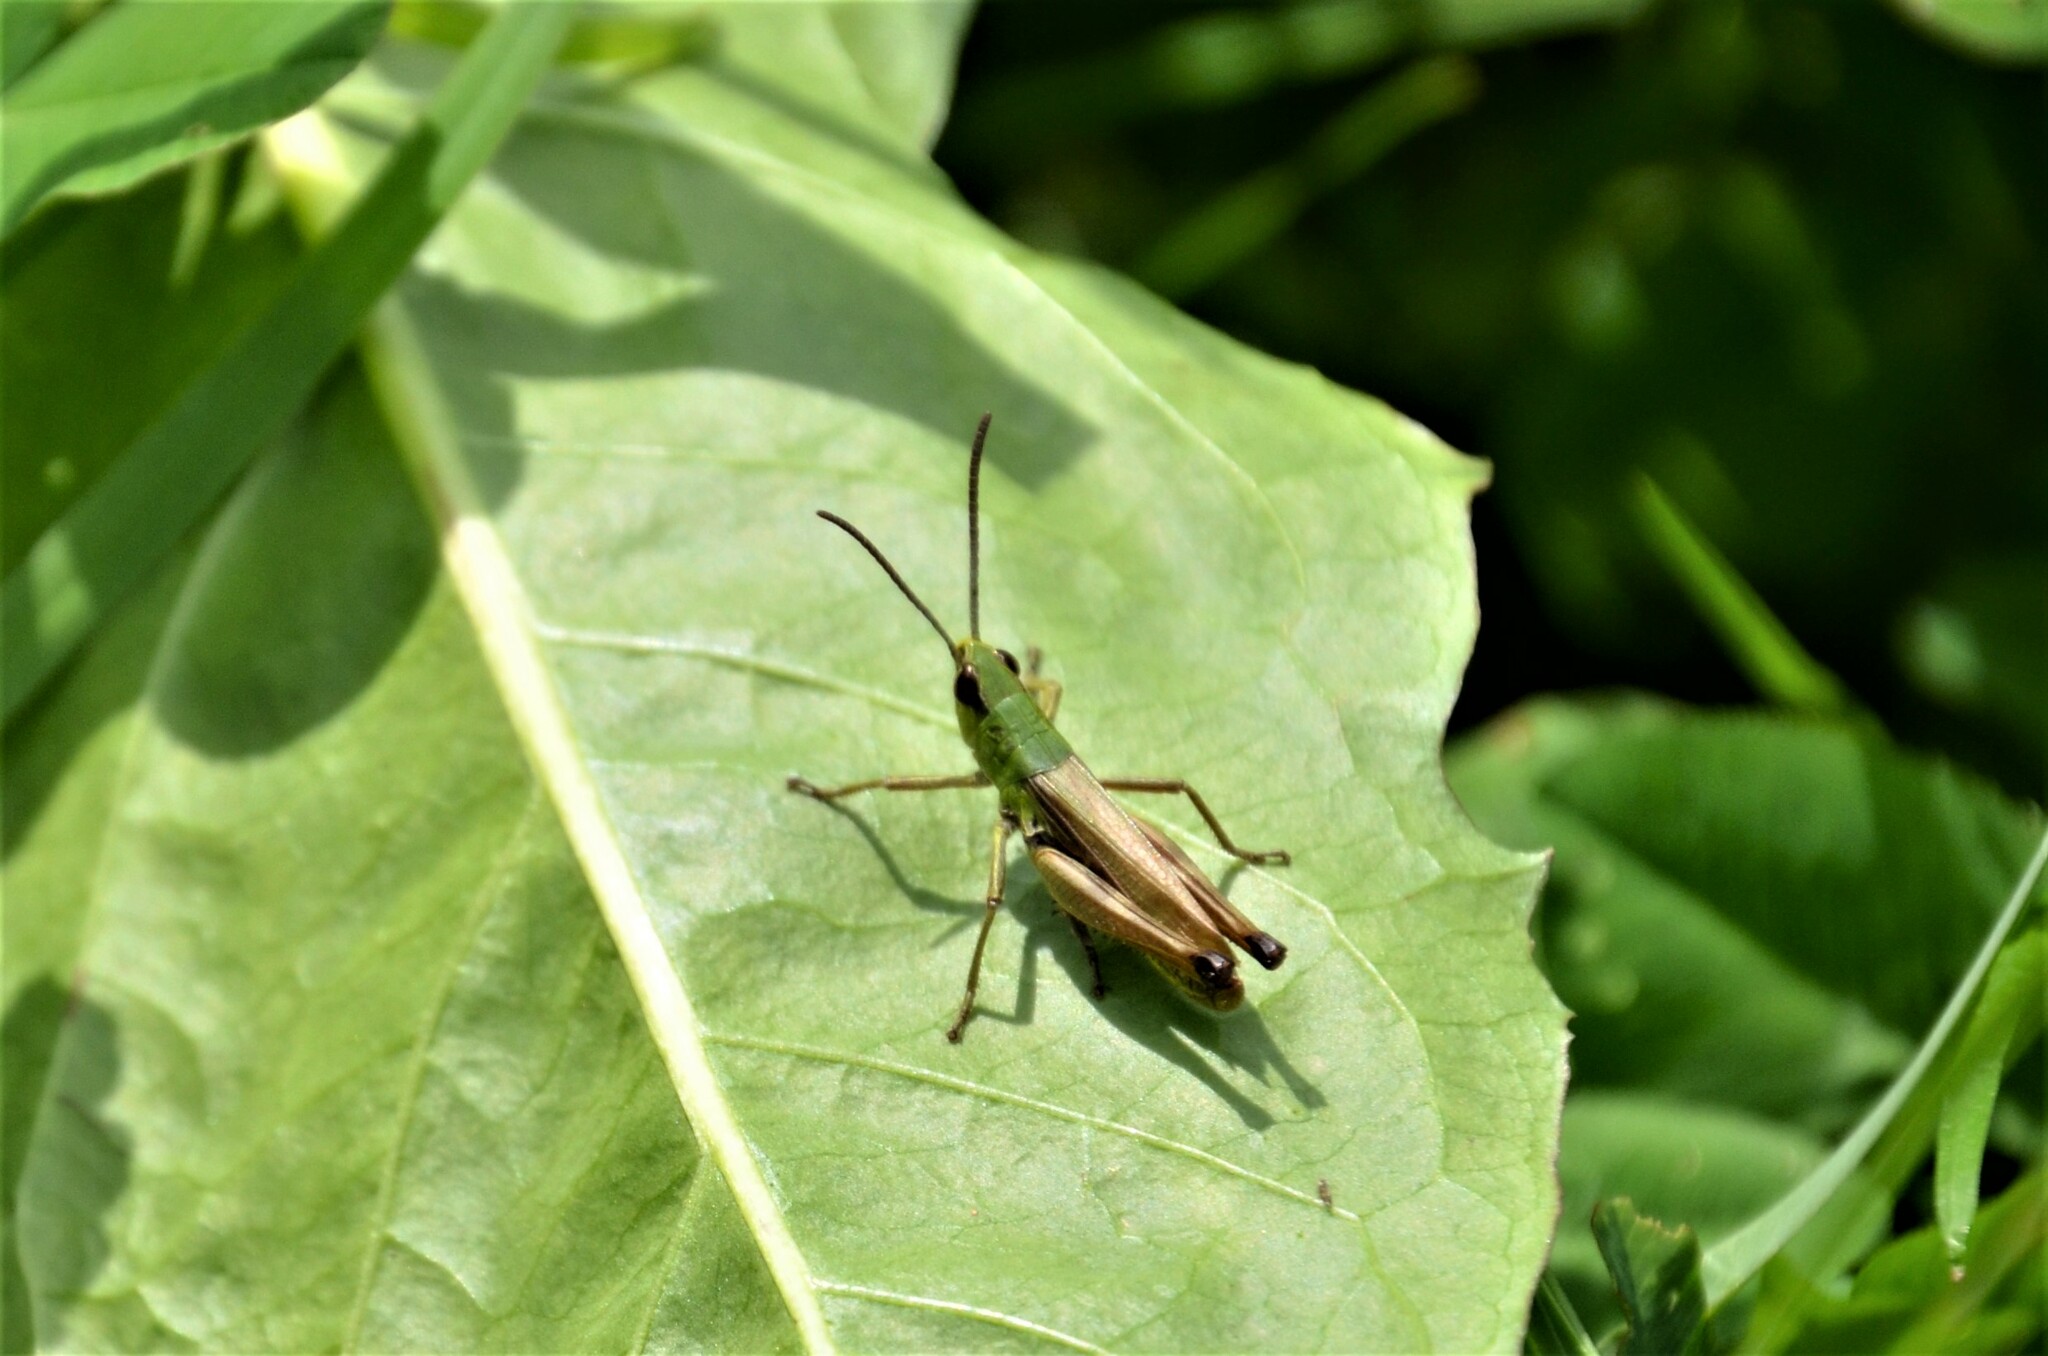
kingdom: Animalia
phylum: Arthropoda
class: Insecta
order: Orthoptera
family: Acrididae
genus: Pseudochorthippus
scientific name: Pseudochorthippus parallelus
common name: Meadow grasshopper
